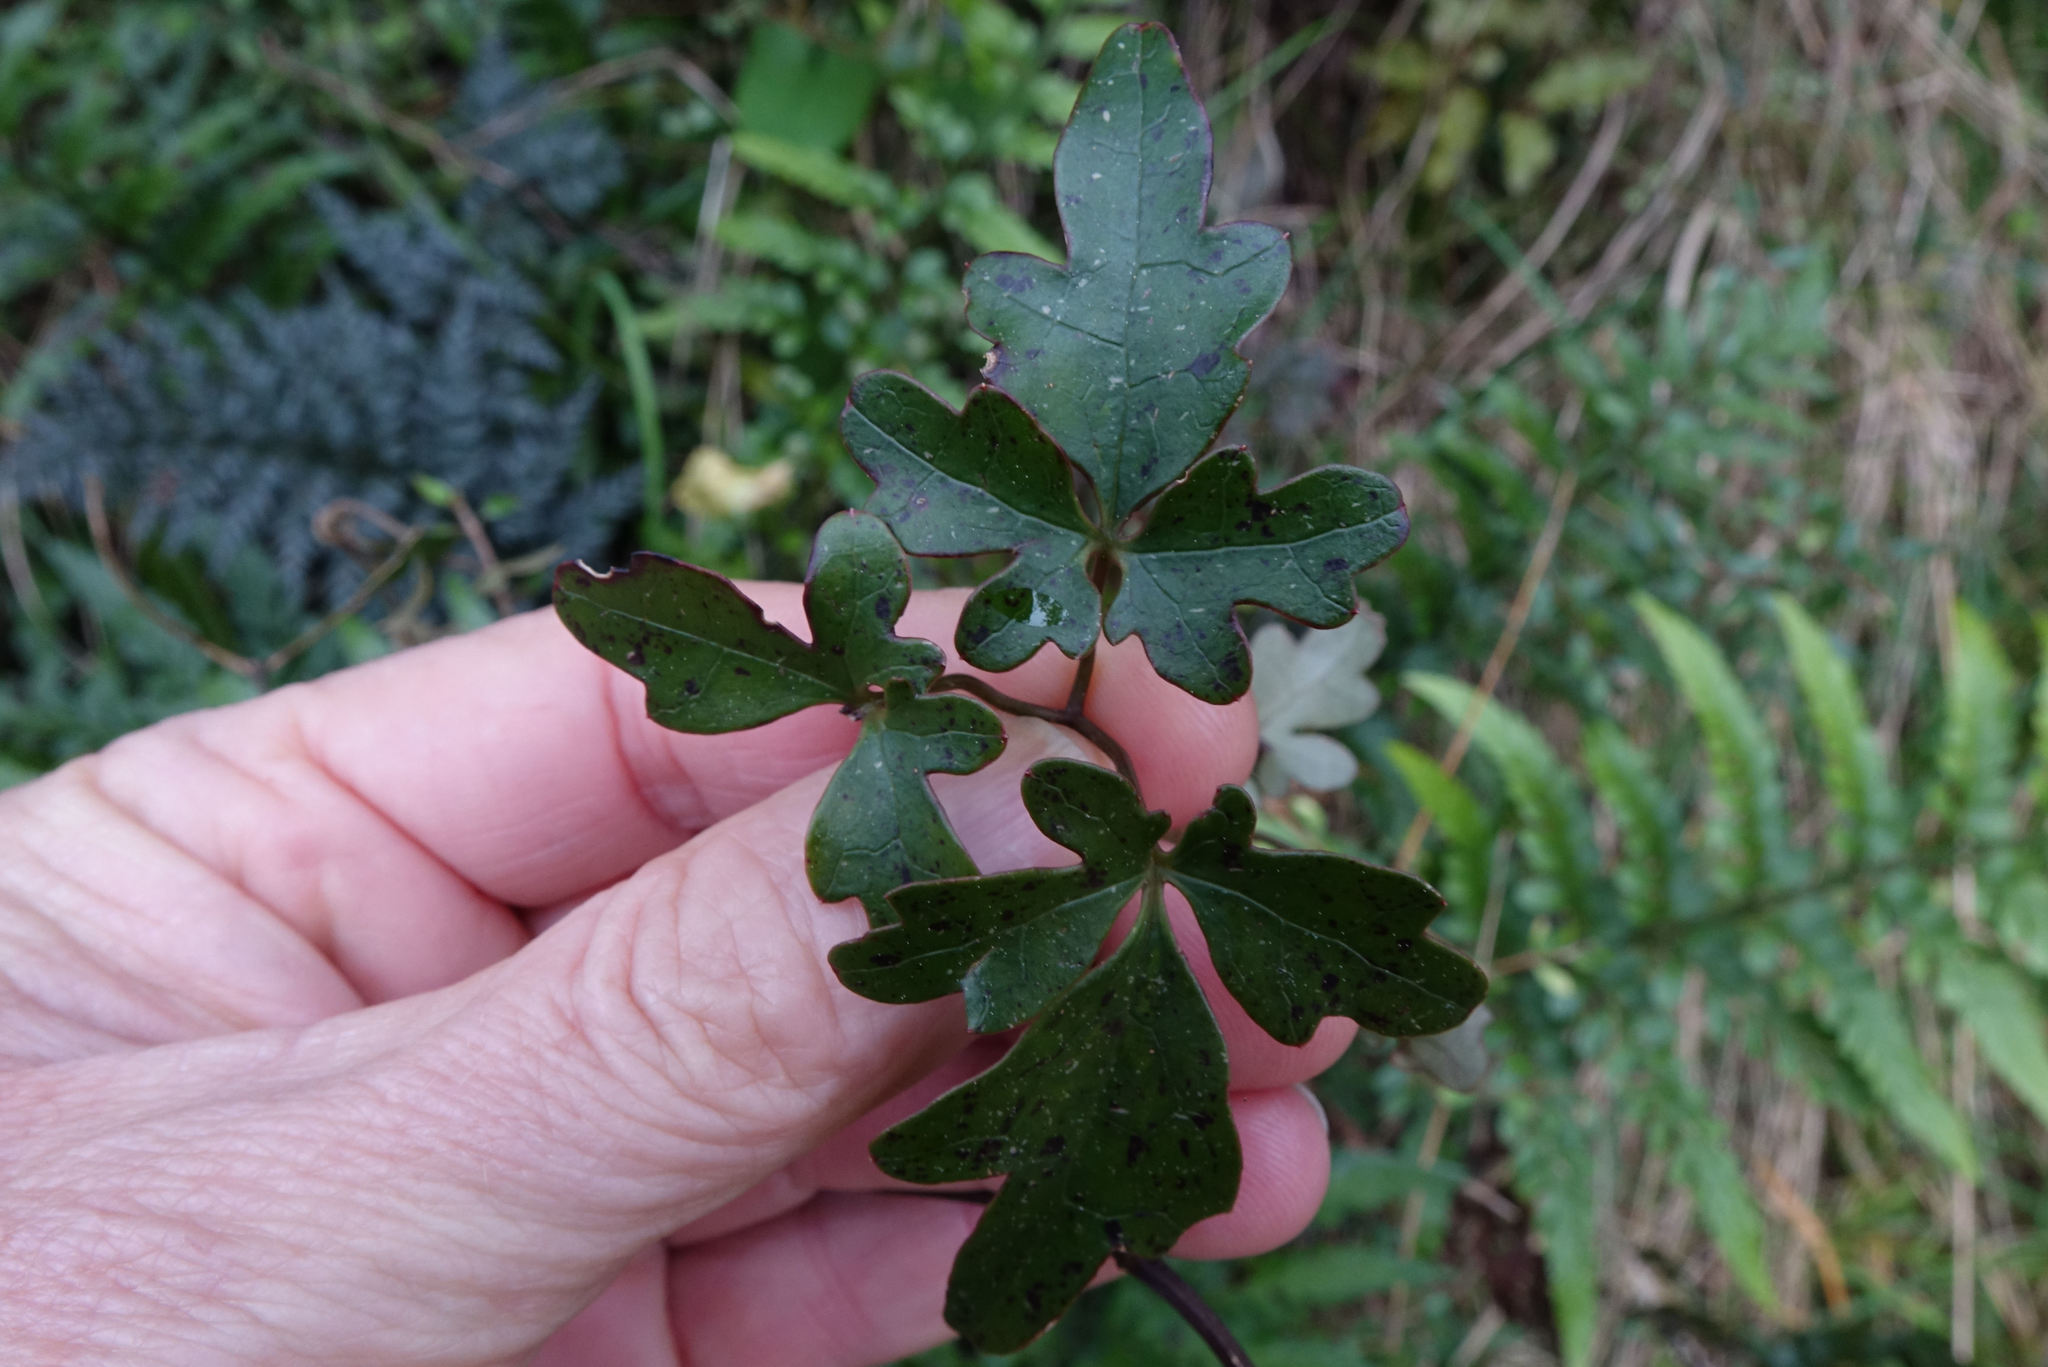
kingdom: Plantae
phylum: Tracheophyta
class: Magnoliopsida
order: Ranunculales
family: Ranunculaceae
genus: Clematis
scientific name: Clematis paniculata
